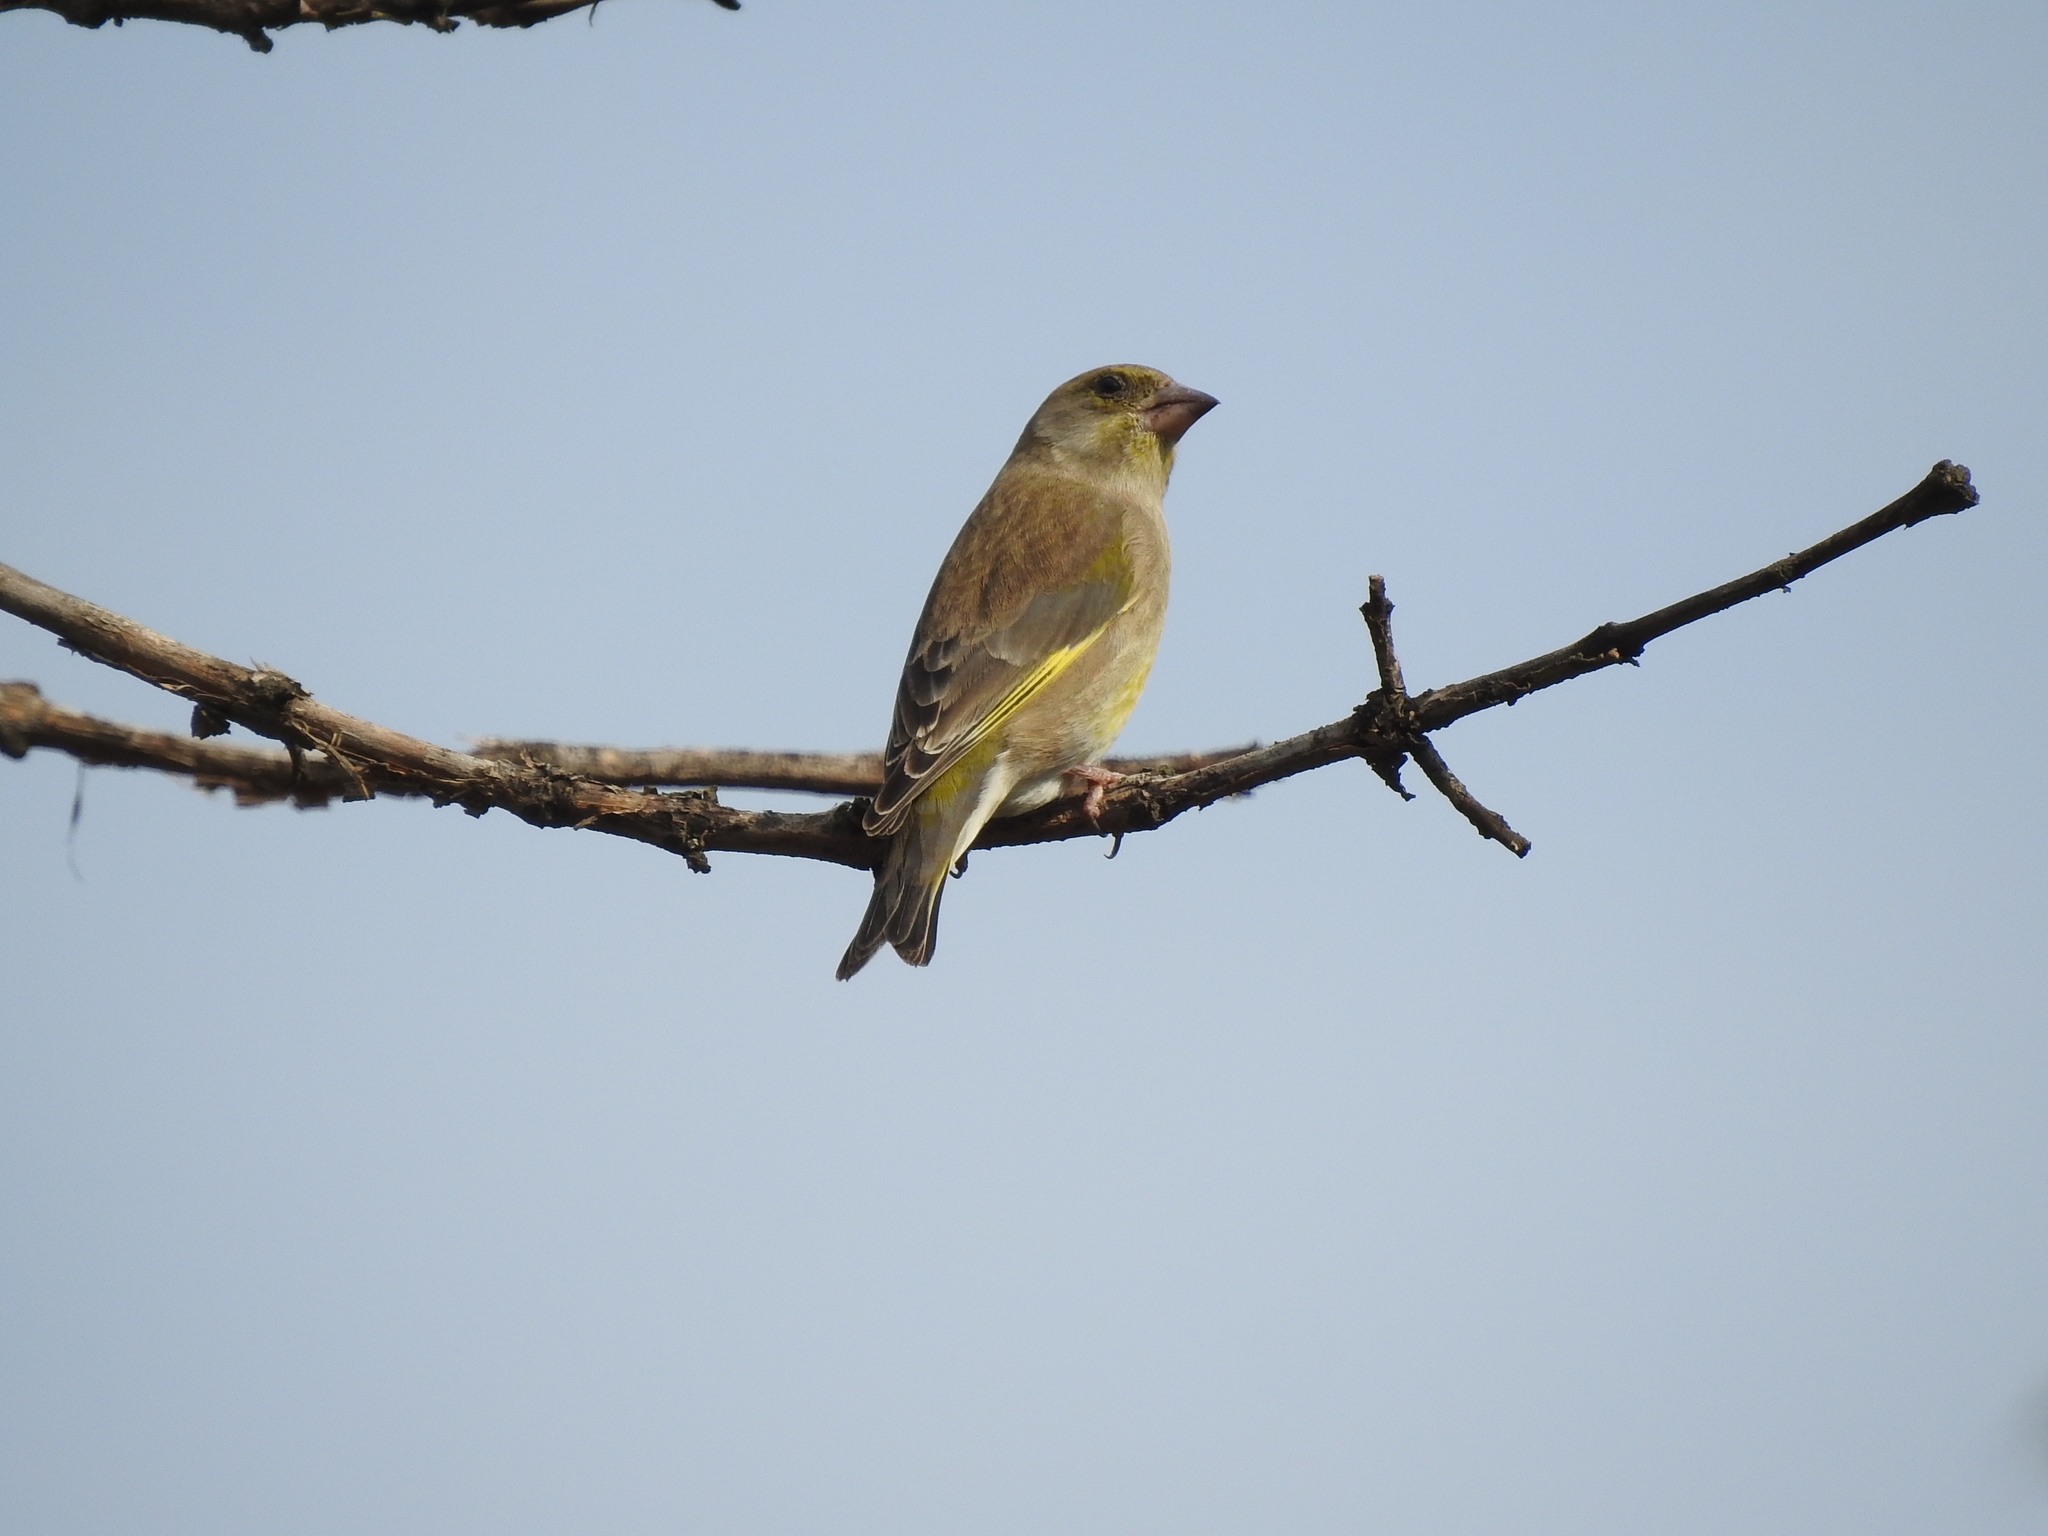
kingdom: Plantae
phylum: Tracheophyta
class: Liliopsida
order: Poales
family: Poaceae
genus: Chloris
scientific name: Chloris chloris
